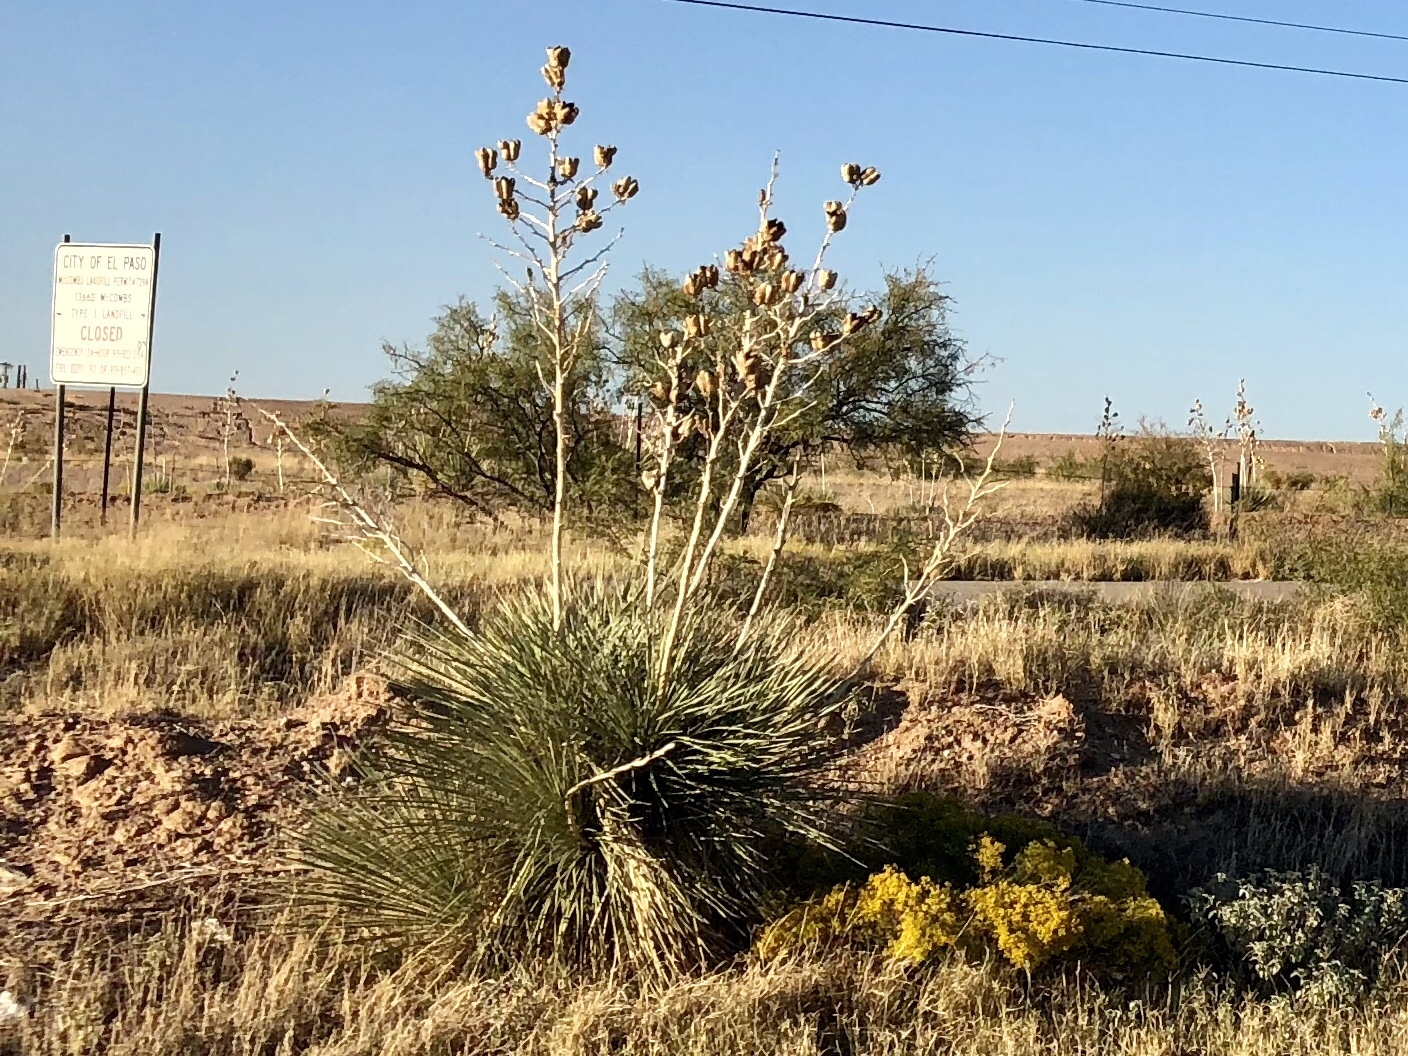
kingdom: Plantae
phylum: Tracheophyta
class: Liliopsida
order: Asparagales
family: Asparagaceae
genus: Yucca
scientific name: Yucca elata
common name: Palmella
